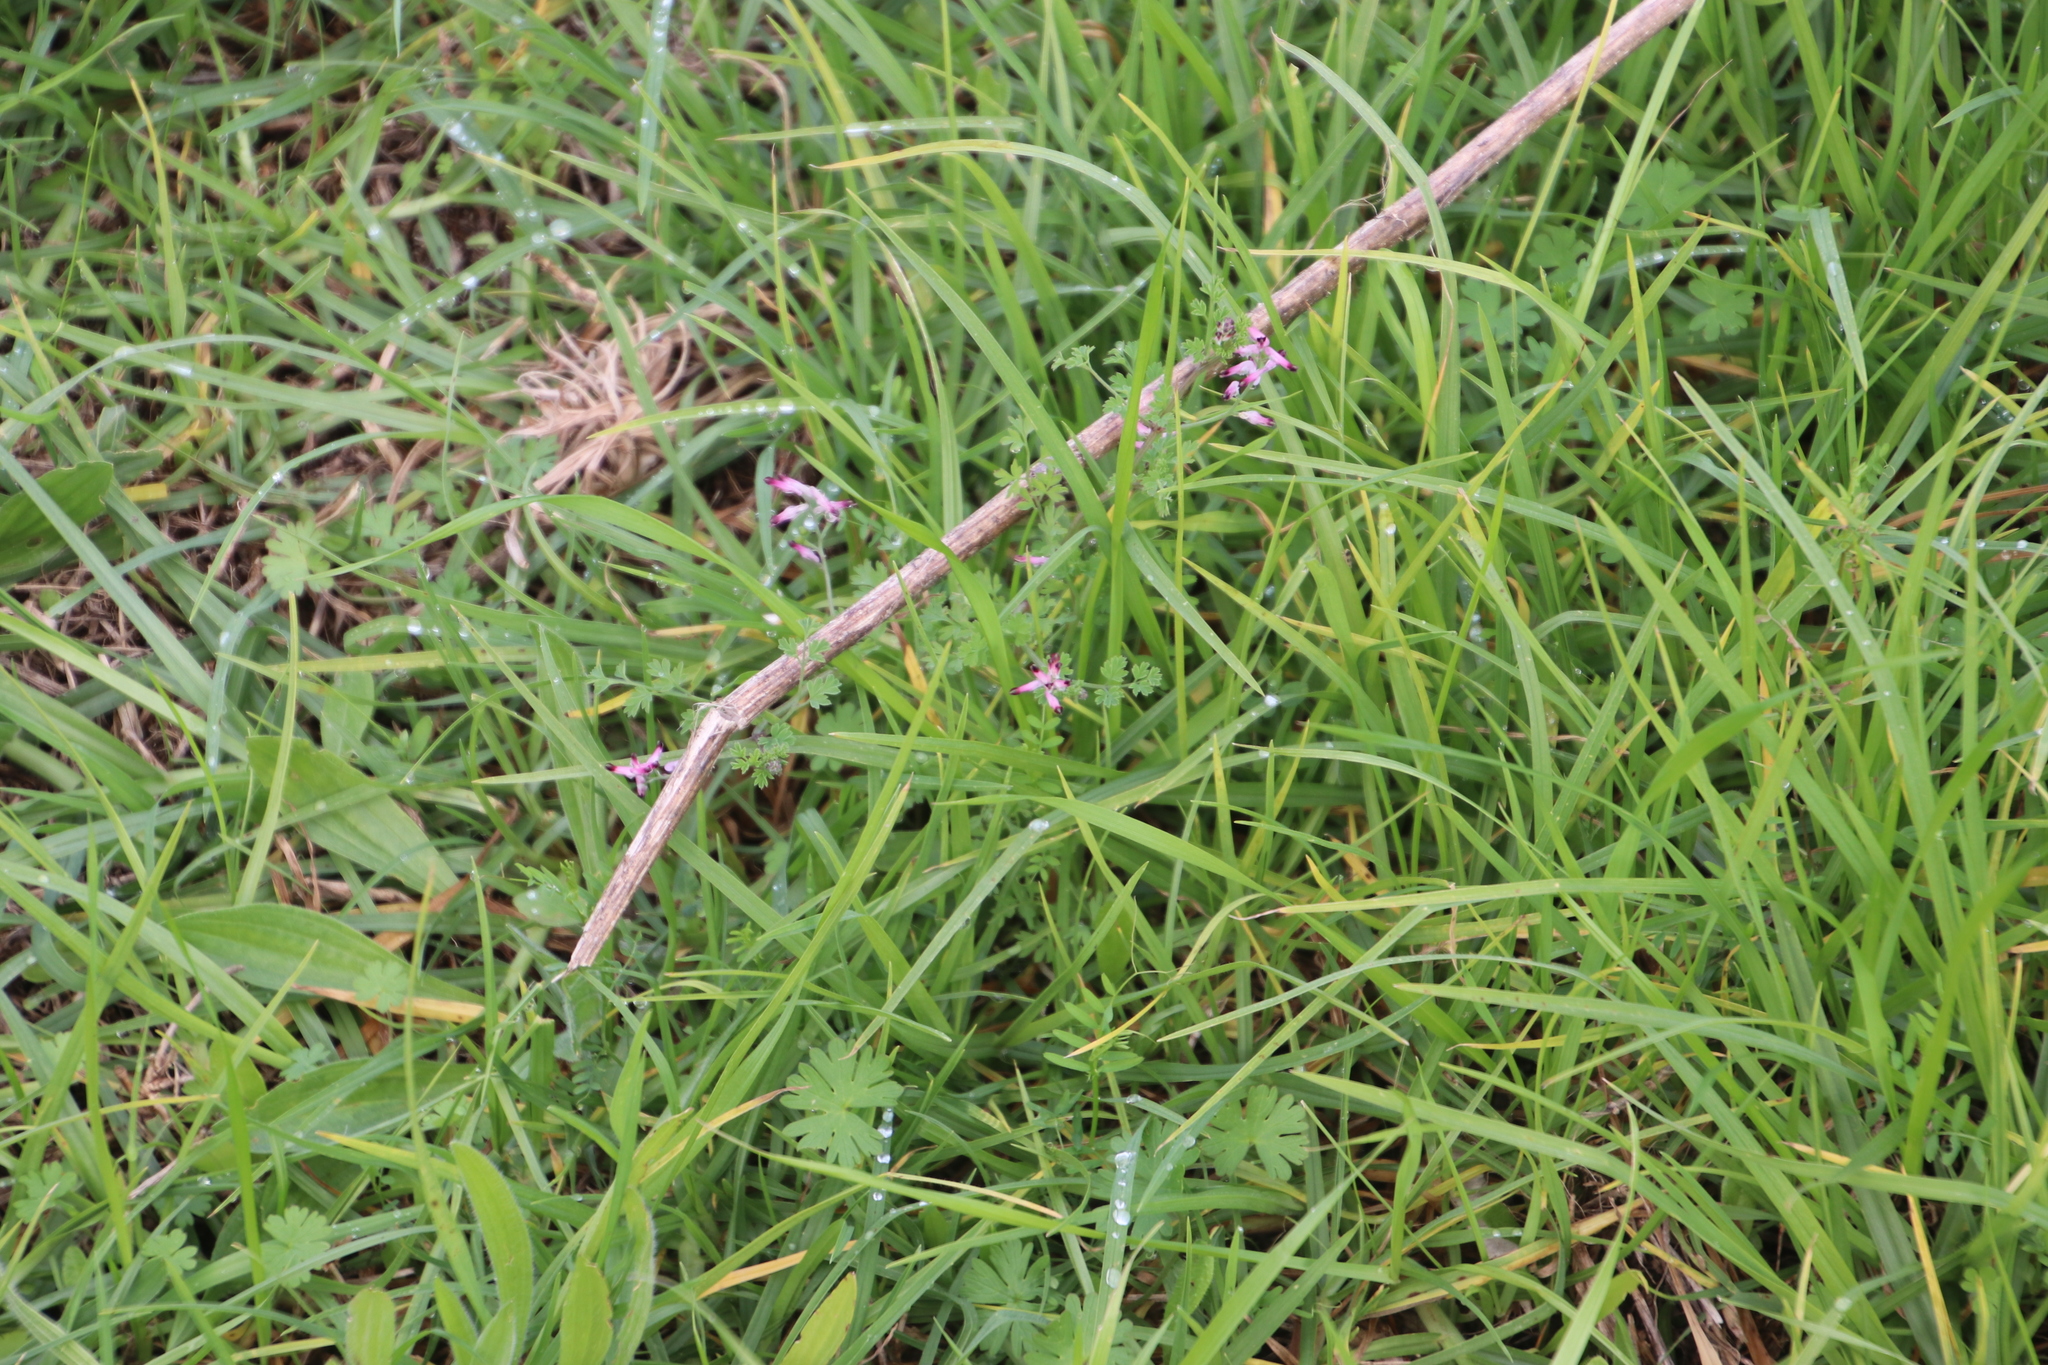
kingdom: Plantae
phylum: Tracheophyta
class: Magnoliopsida
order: Ranunculales
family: Papaveraceae
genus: Fumaria
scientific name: Fumaria muralis
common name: Common ramping-fumitory
